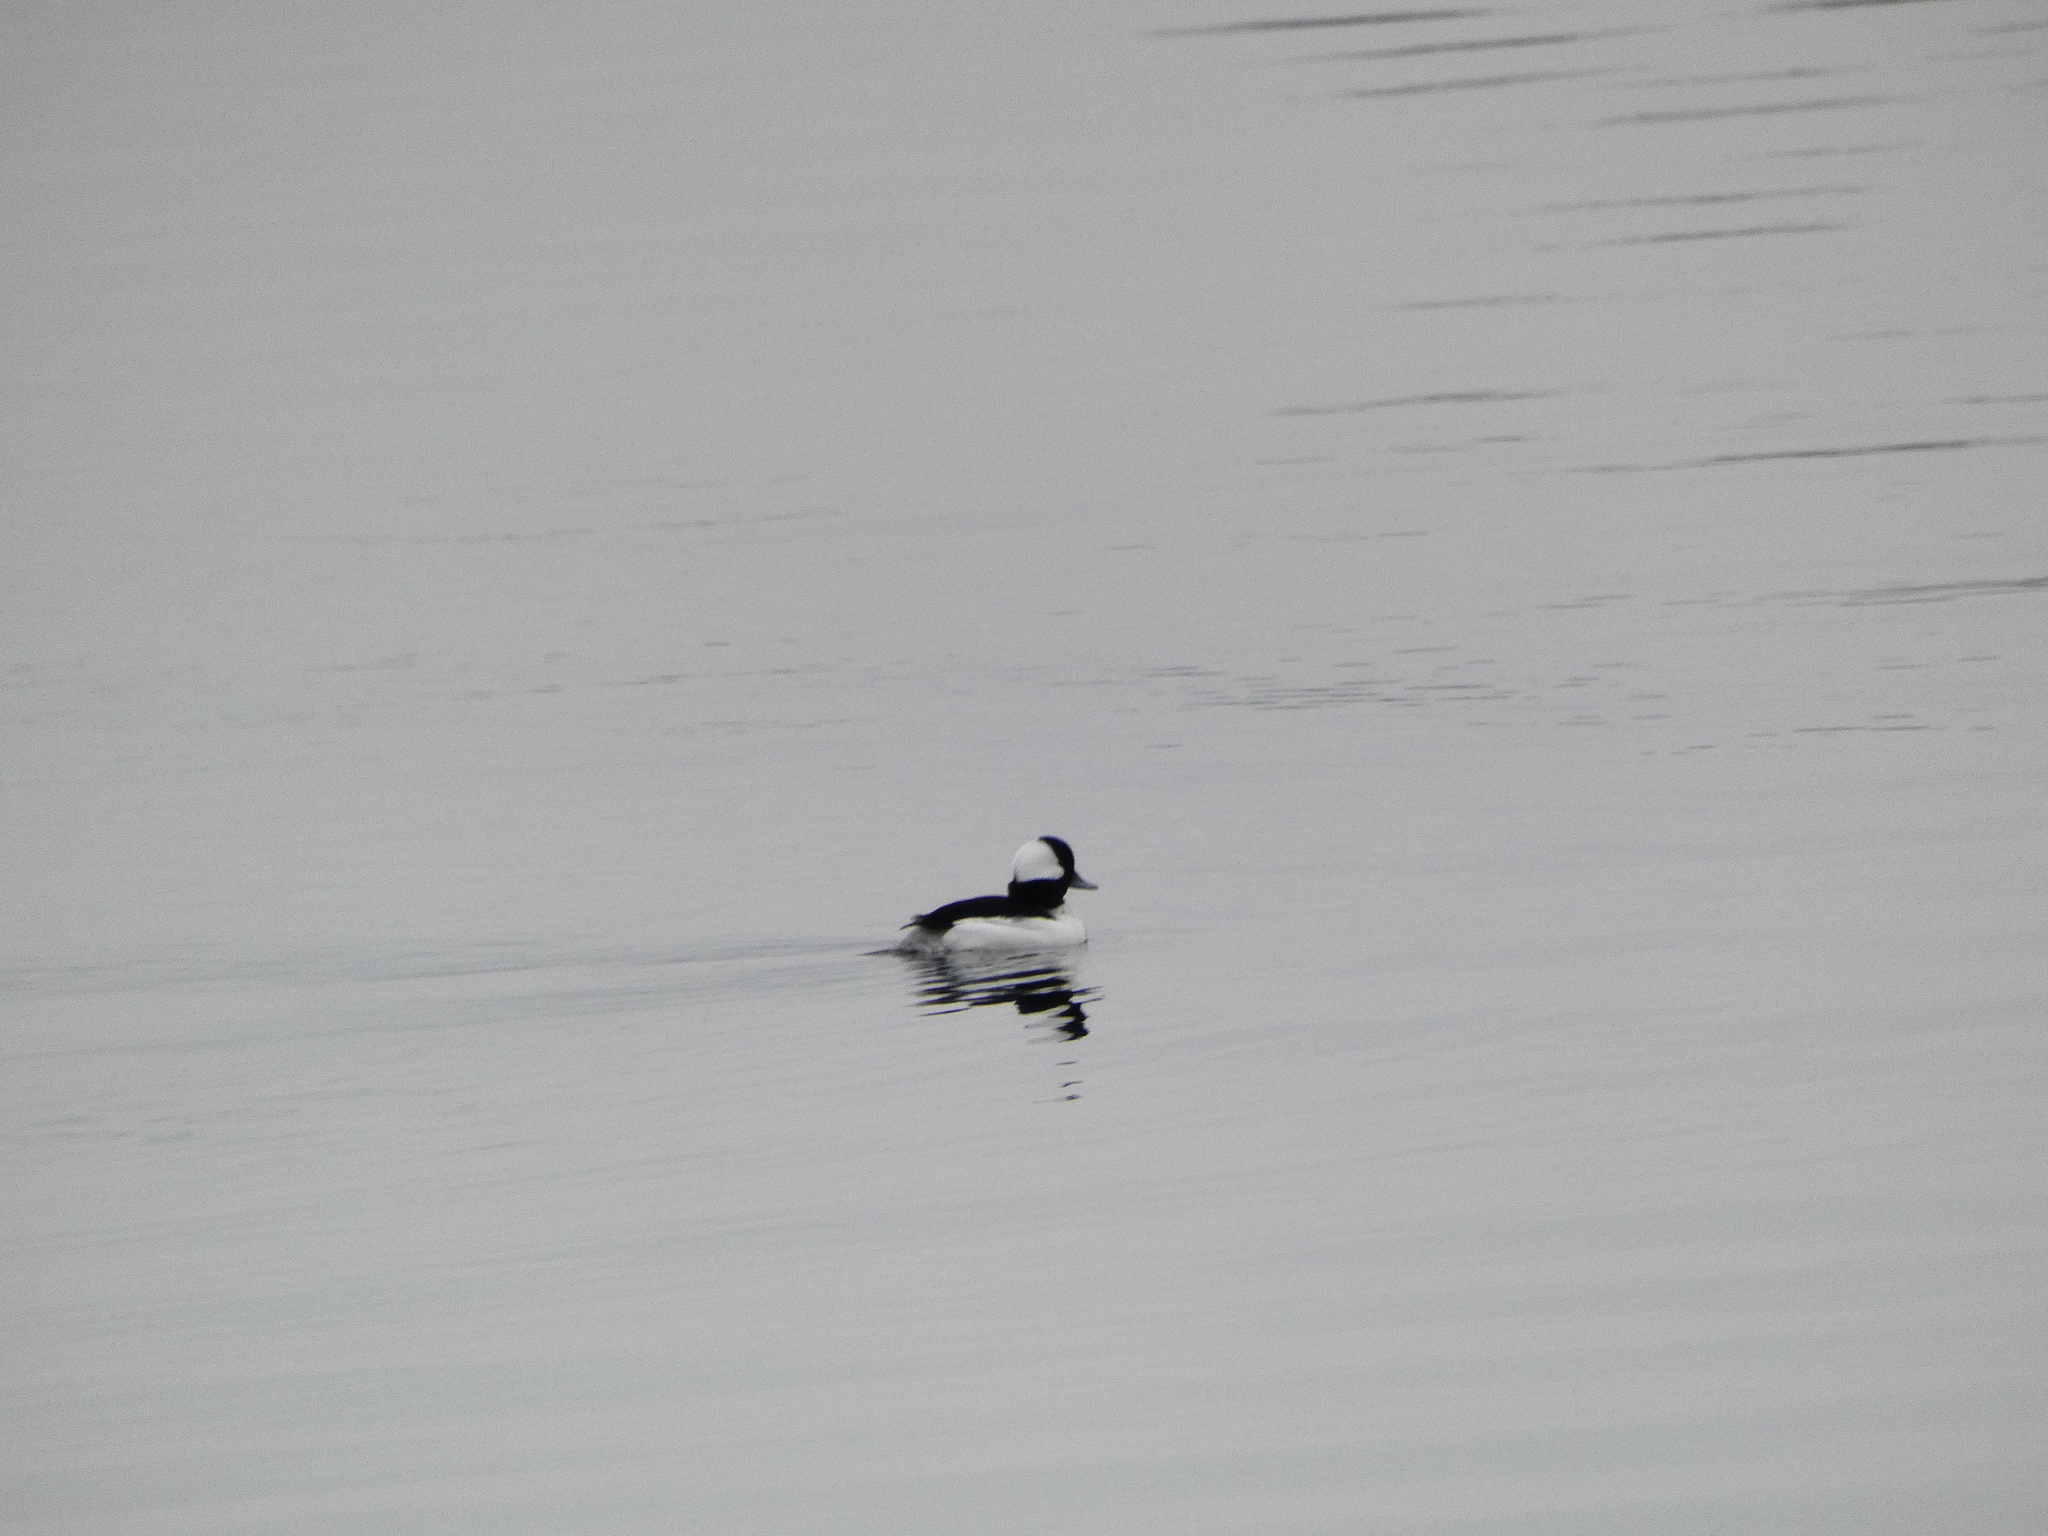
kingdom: Animalia
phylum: Chordata
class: Aves
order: Anseriformes
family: Anatidae
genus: Bucephala
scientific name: Bucephala albeola
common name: Bufflehead
